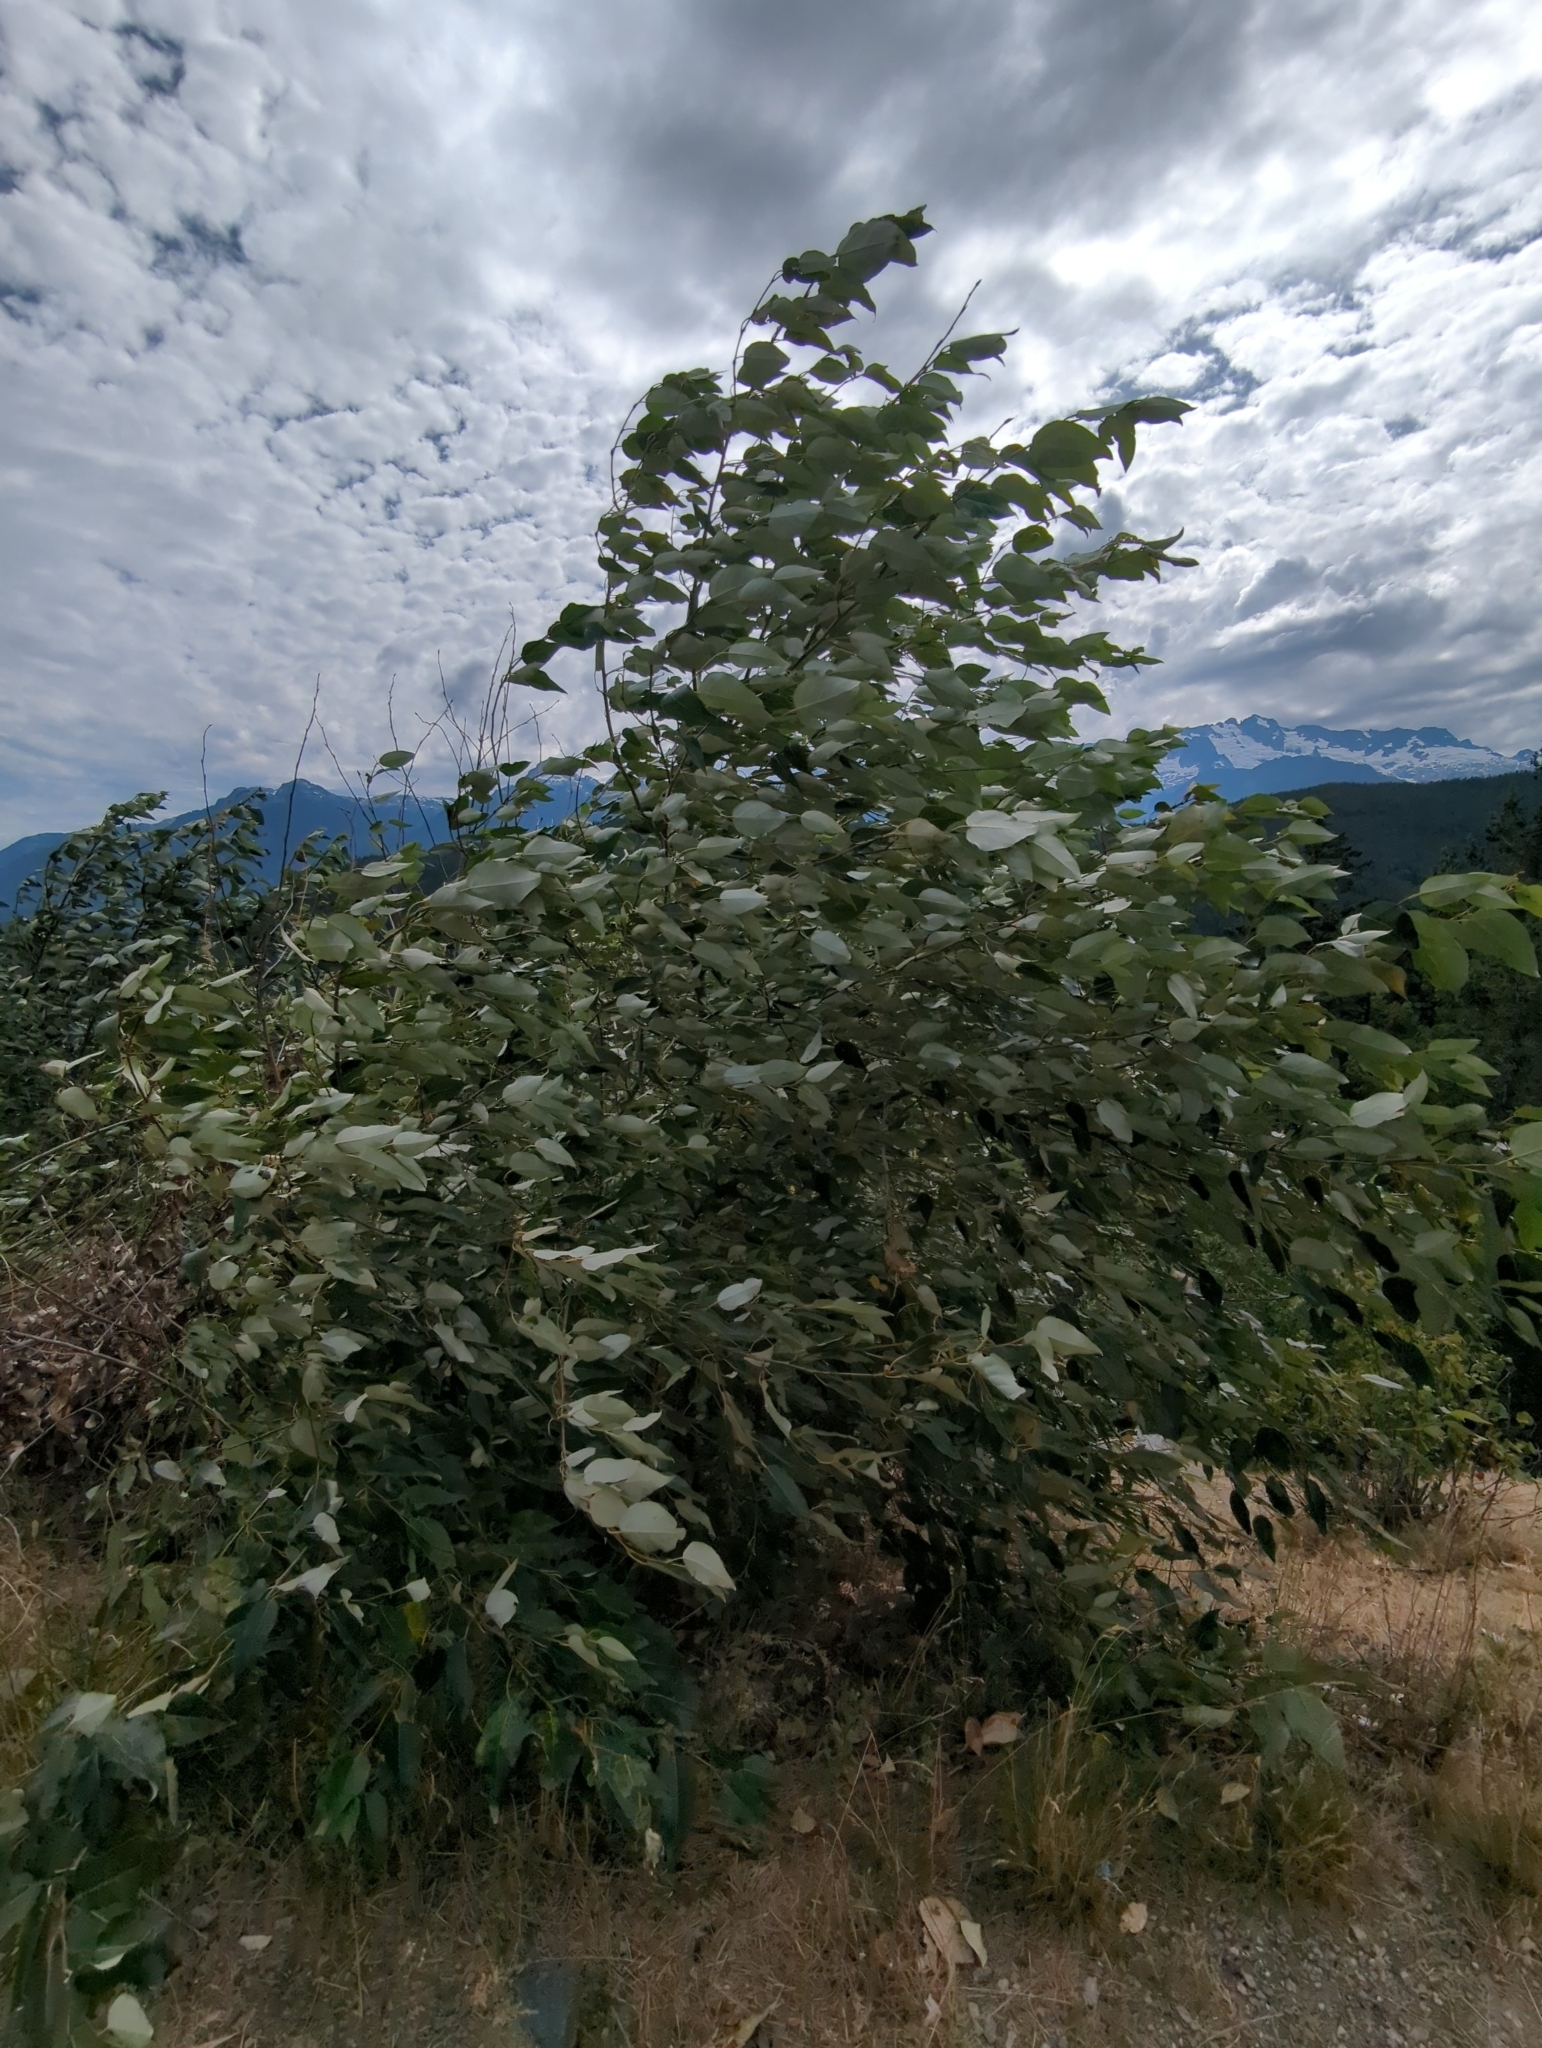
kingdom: Plantae
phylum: Tracheophyta
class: Magnoliopsida
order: Malpighiales
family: Salicaceae
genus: Populus
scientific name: Populus trichocarpa
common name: Black cottonwood
